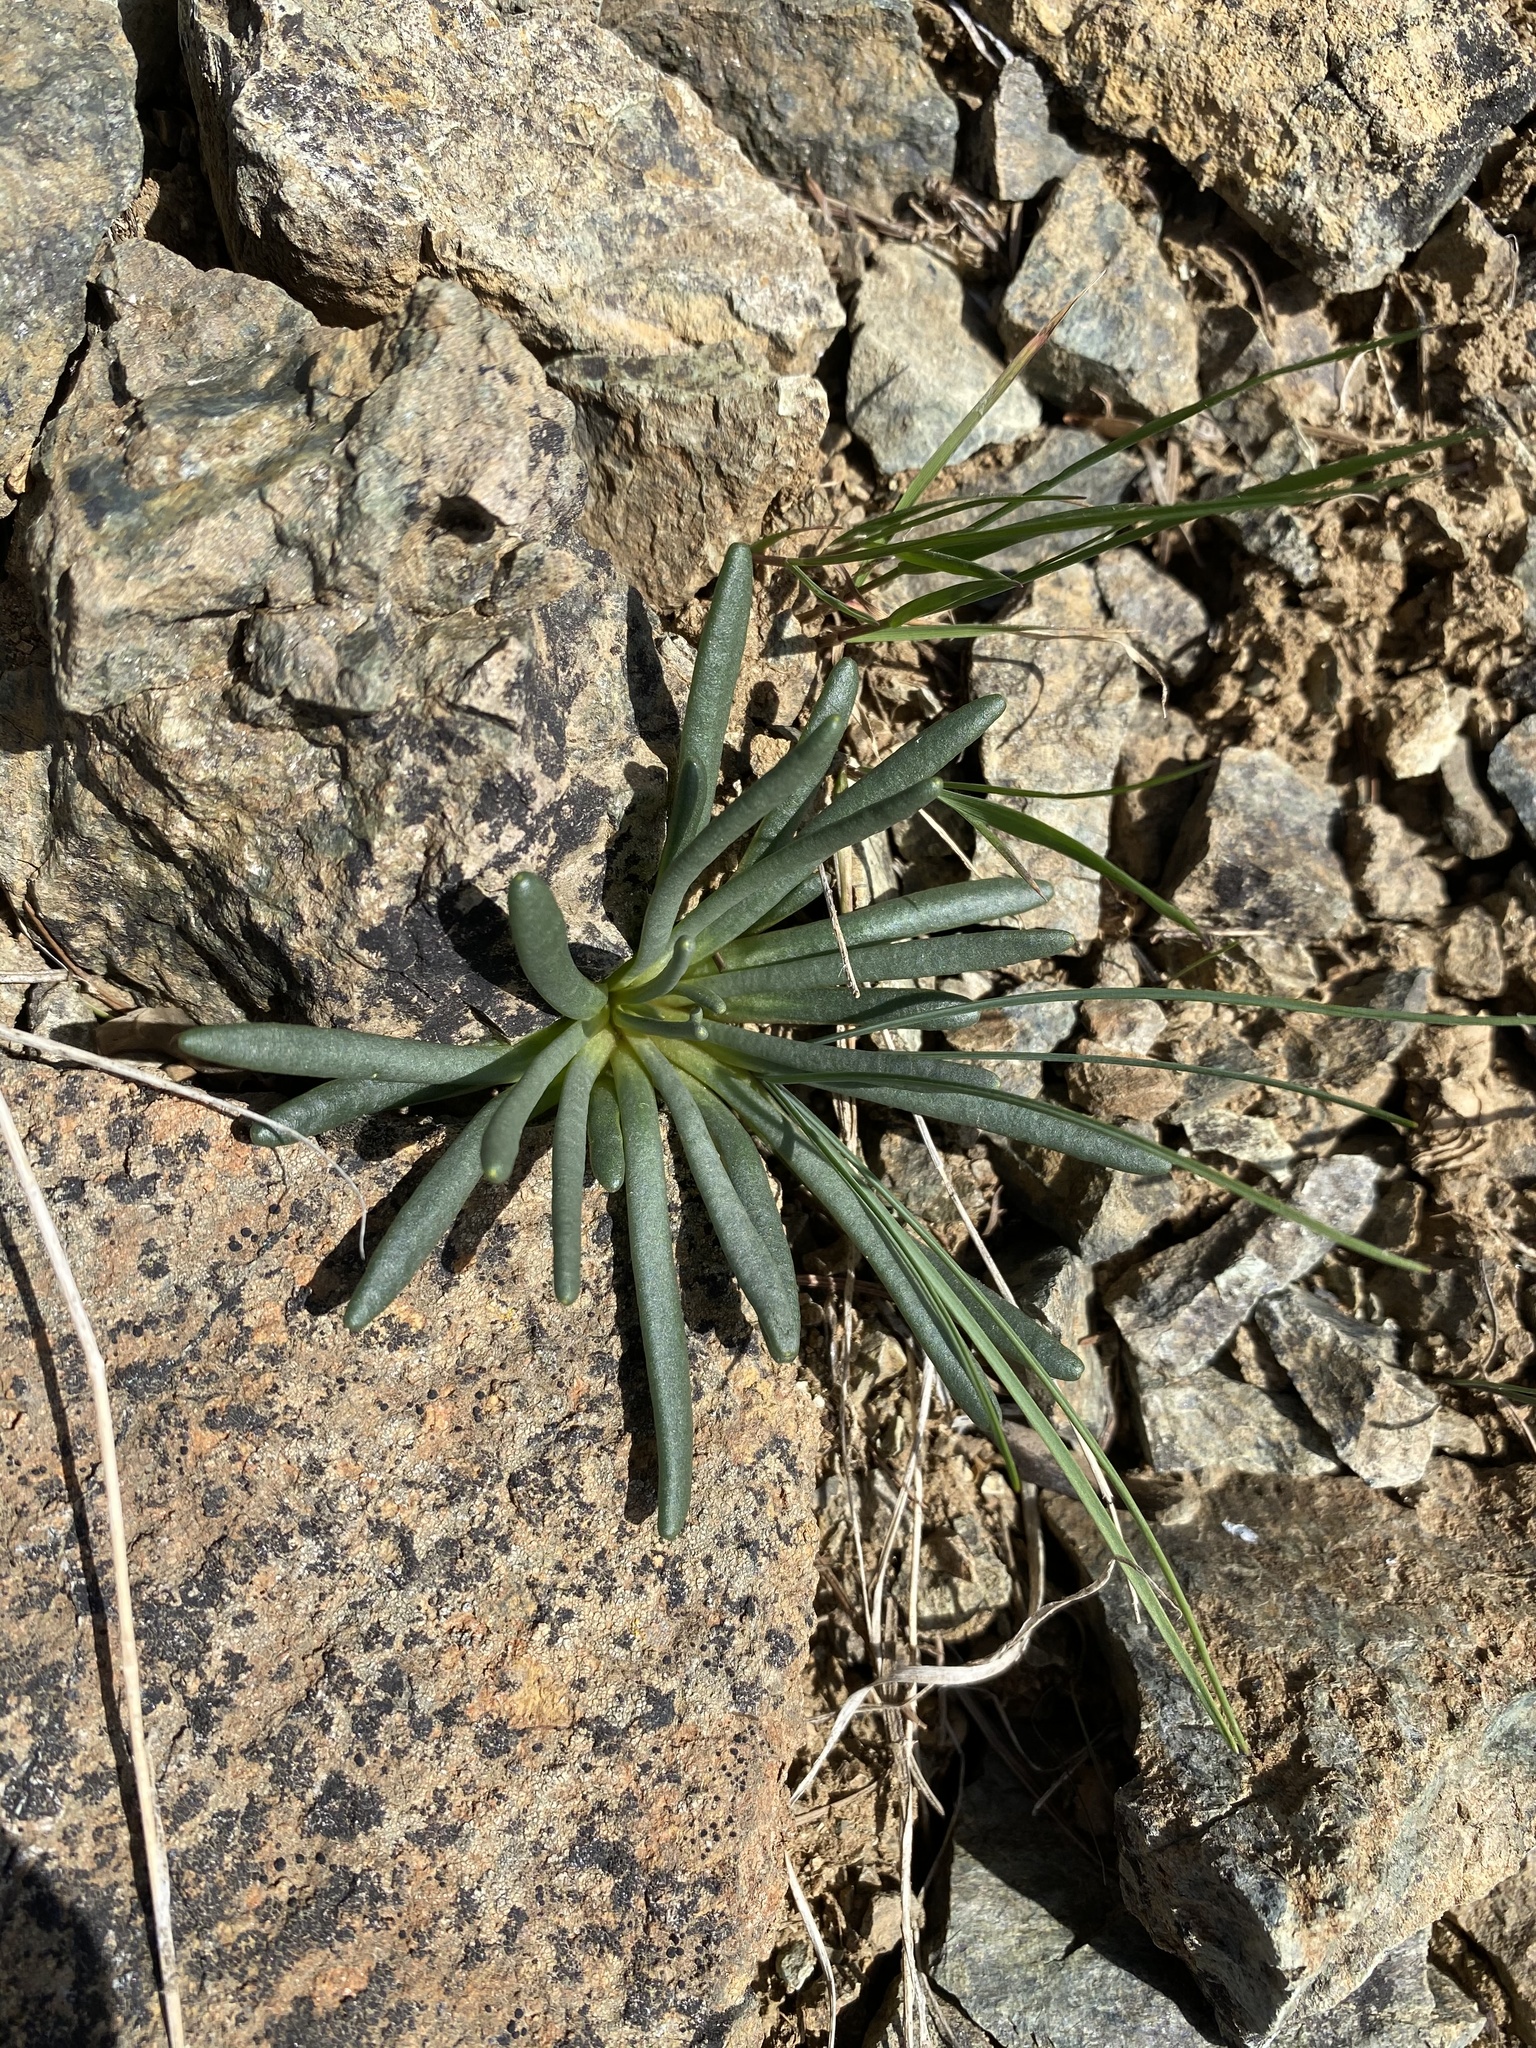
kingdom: Plantae
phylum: Tracheophyta
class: Magnoliopsida
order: Caryophyllales
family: Montiaceae
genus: Lewisia
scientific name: Lewisia rediviva
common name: Bitter-root
